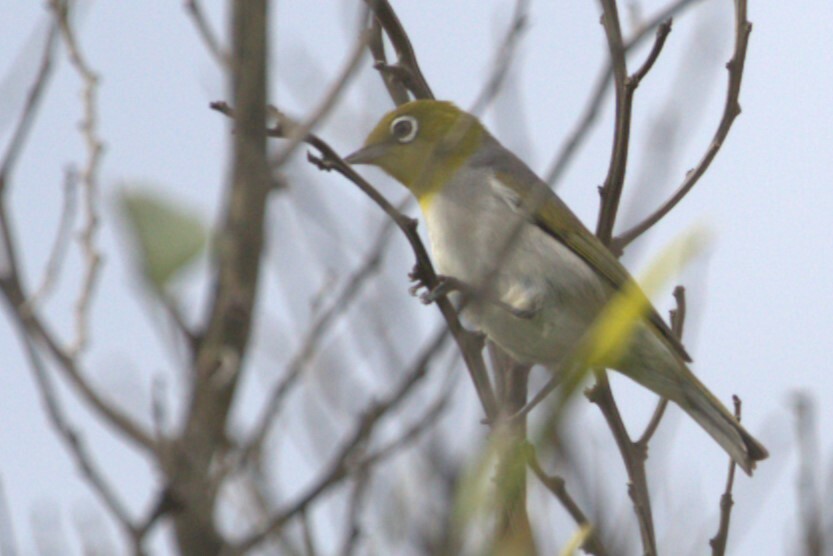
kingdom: Animalia
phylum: Chordata
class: Aves
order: Passeriformes
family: Zosteropidae
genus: Zosterops
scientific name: Zosterops lateralis
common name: Silvereye
